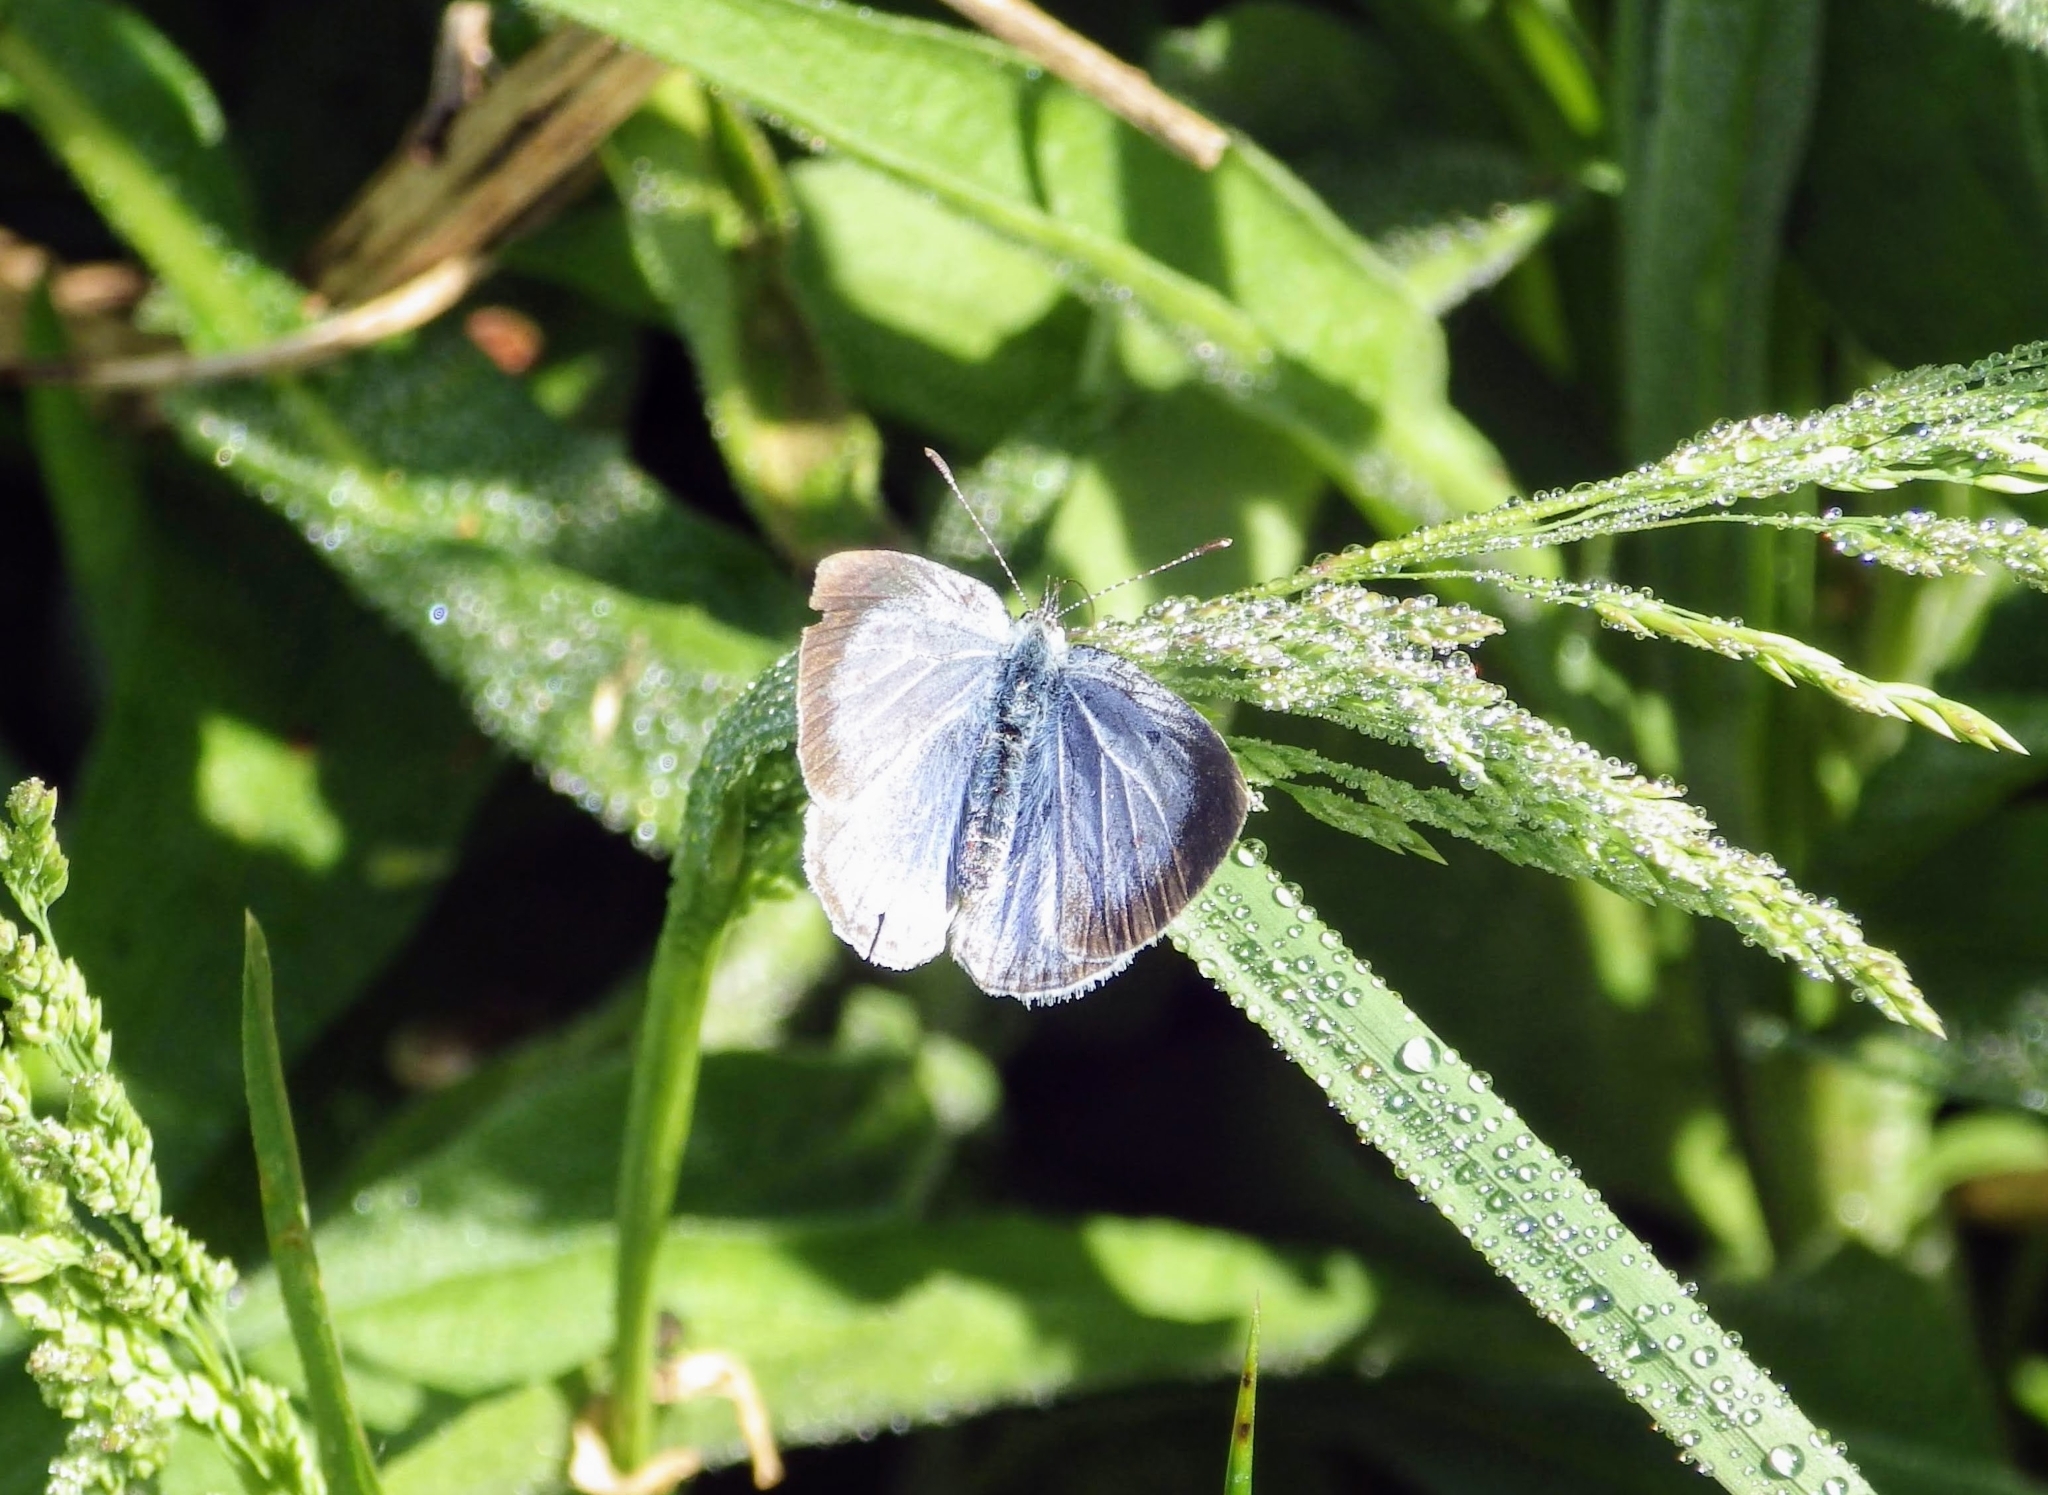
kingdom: Animalia
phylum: Arthropoda
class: Insecta
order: Lepidoptera
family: Lycaenidae
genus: Celastrina
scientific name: Celastrina argiolus
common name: Holly blue
